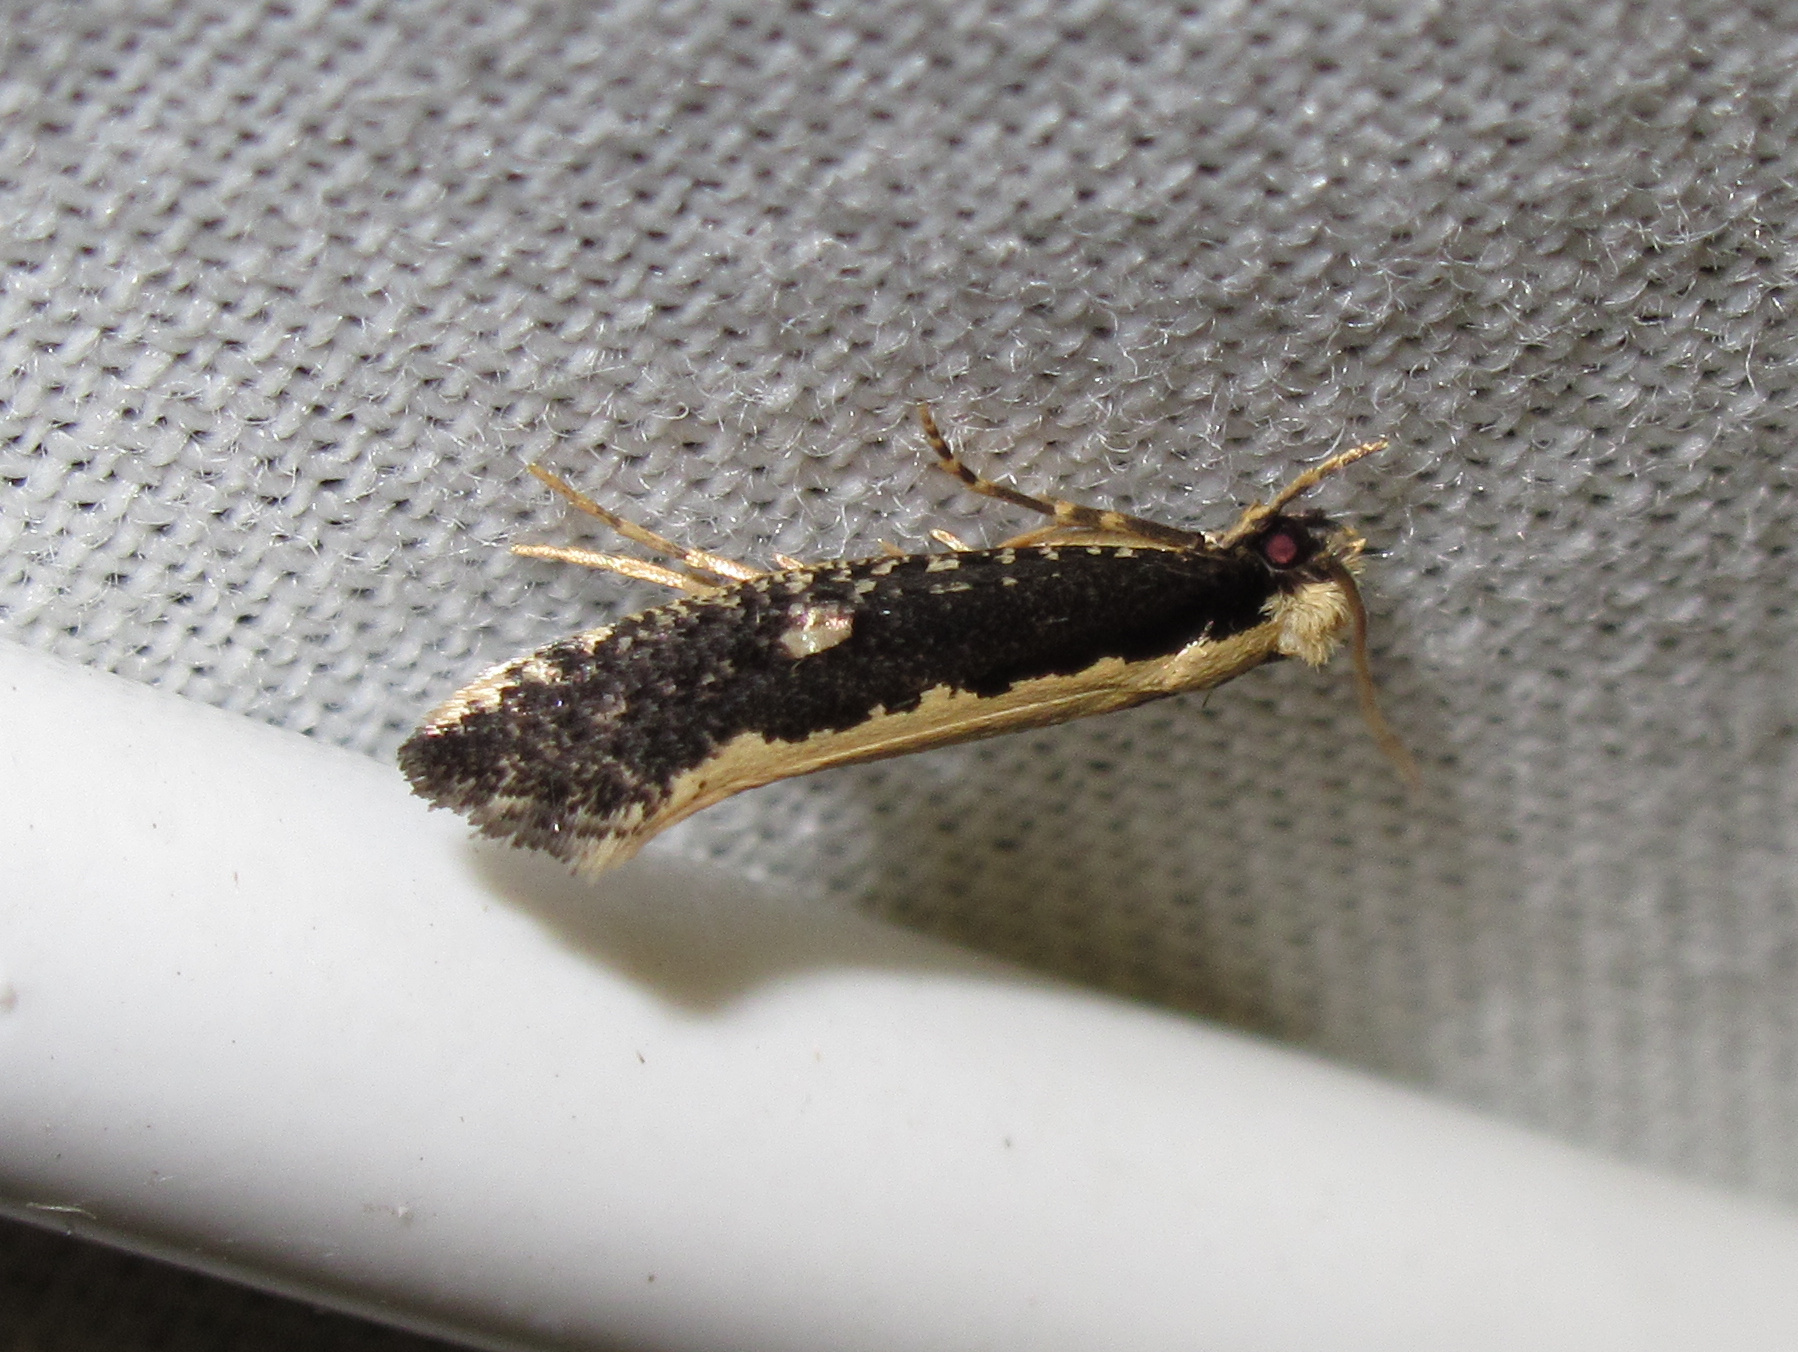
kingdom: Animalia
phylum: Arthropoda
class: Insecta
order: Lepidoptera
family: Tineidae
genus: Monopis
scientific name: Monopis ethelella
